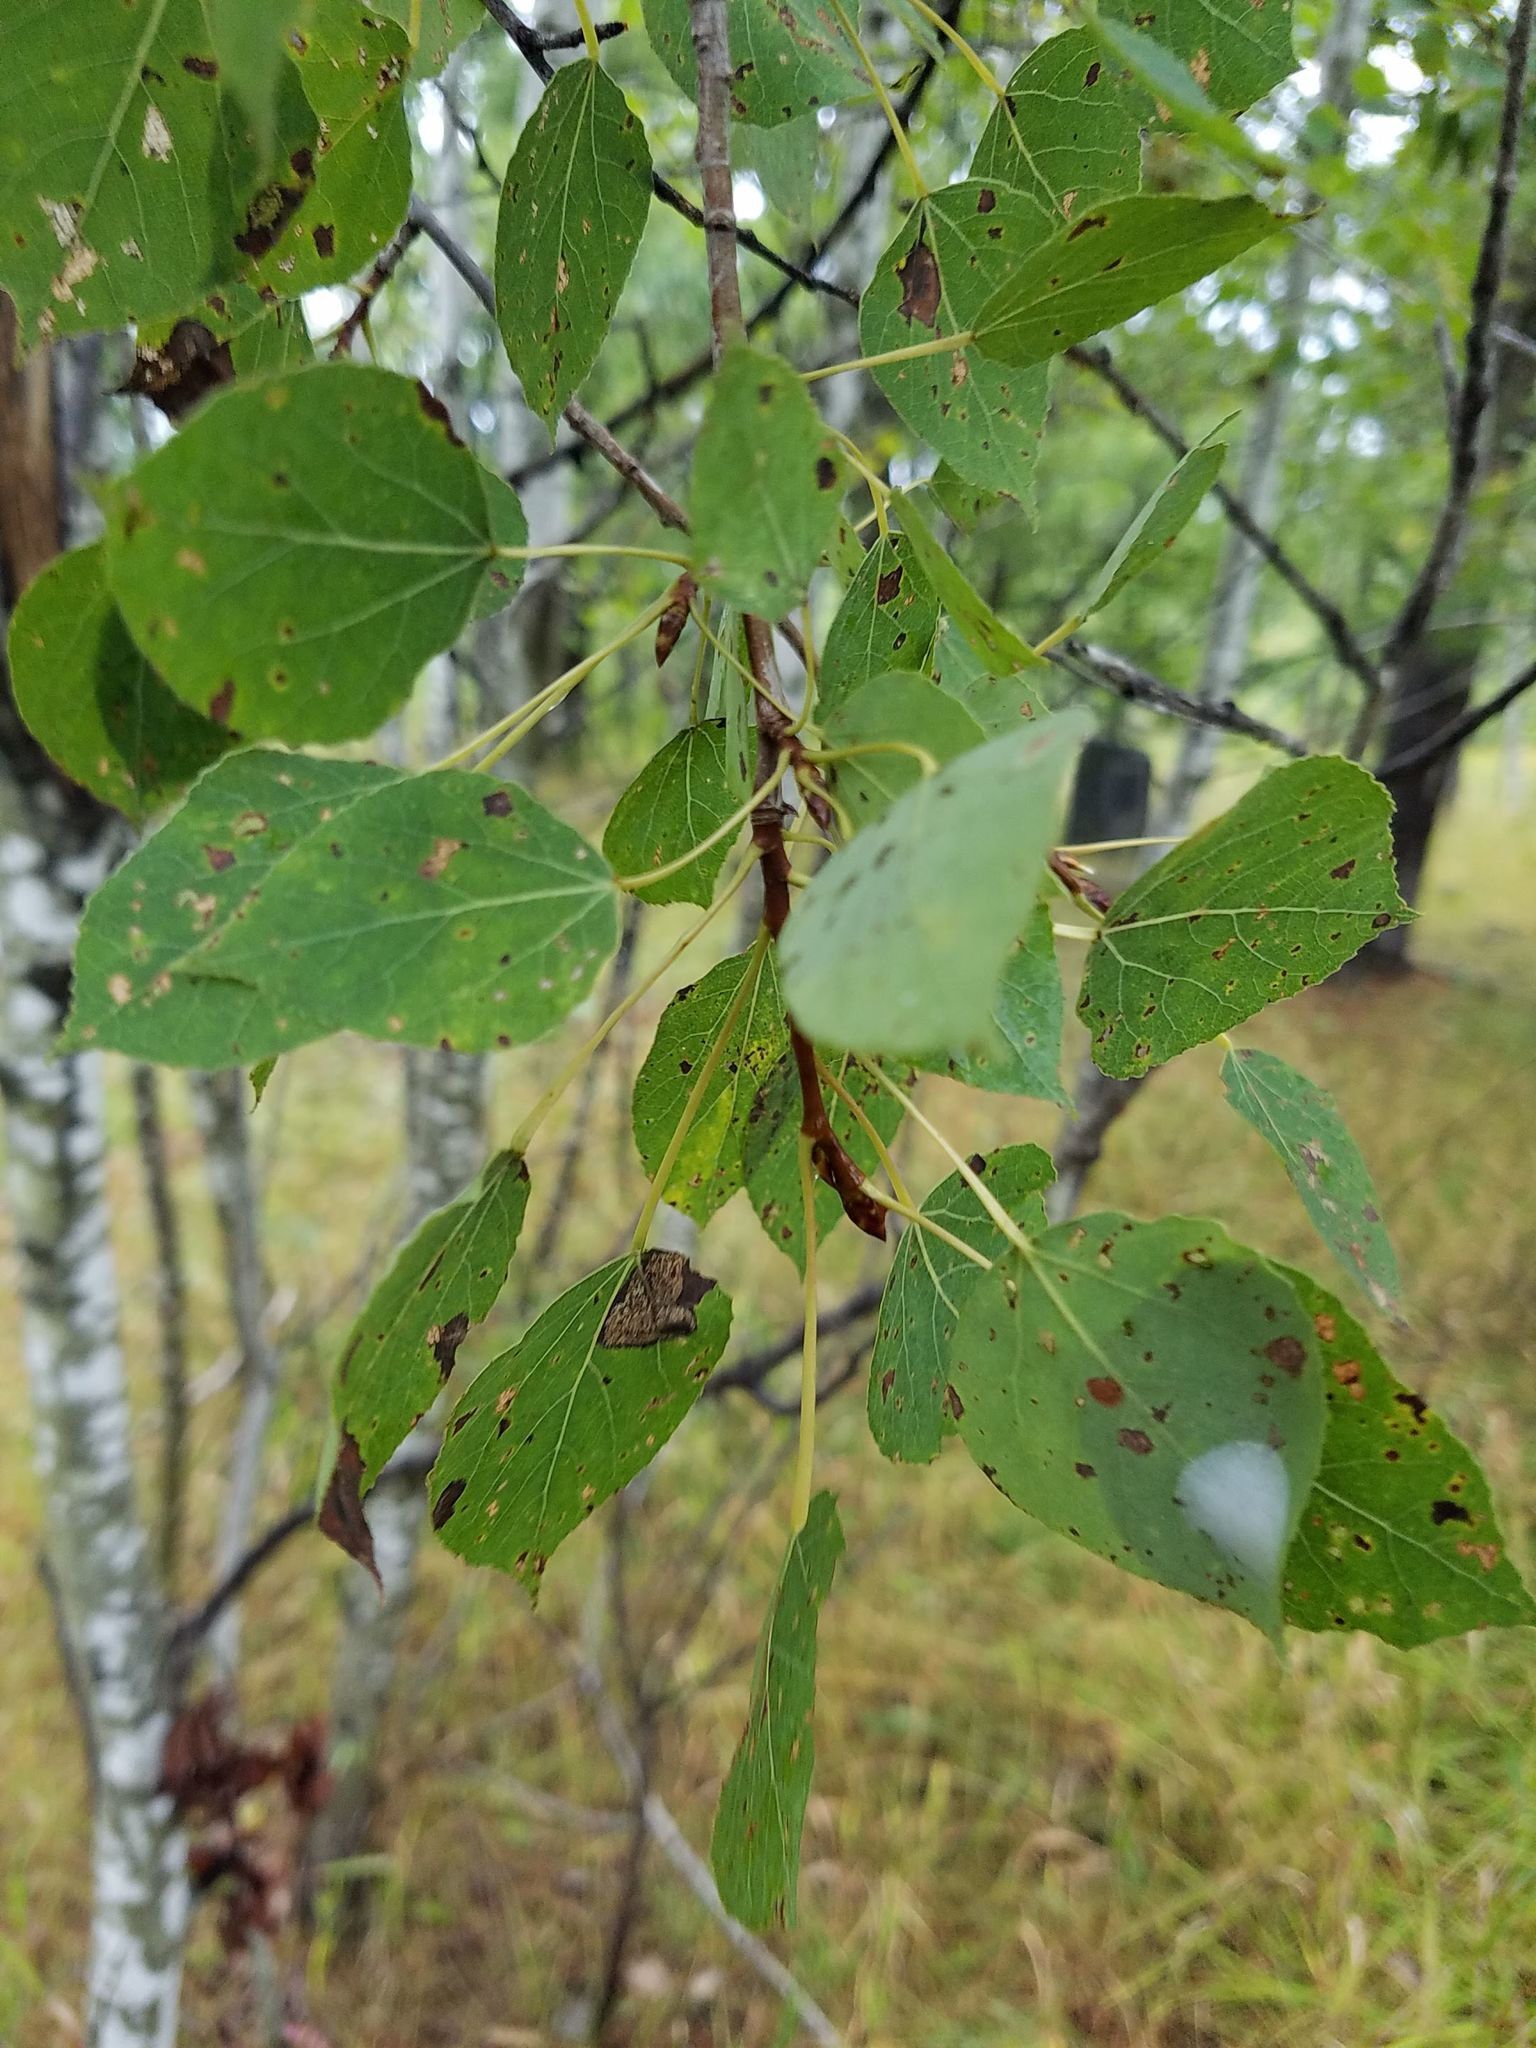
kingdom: Plantae
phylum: Tracheophyta
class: Magnoliopsida
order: Malpighiales
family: Salicaceae
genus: Populus
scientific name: Populus tremuloides
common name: Quaking aspen
